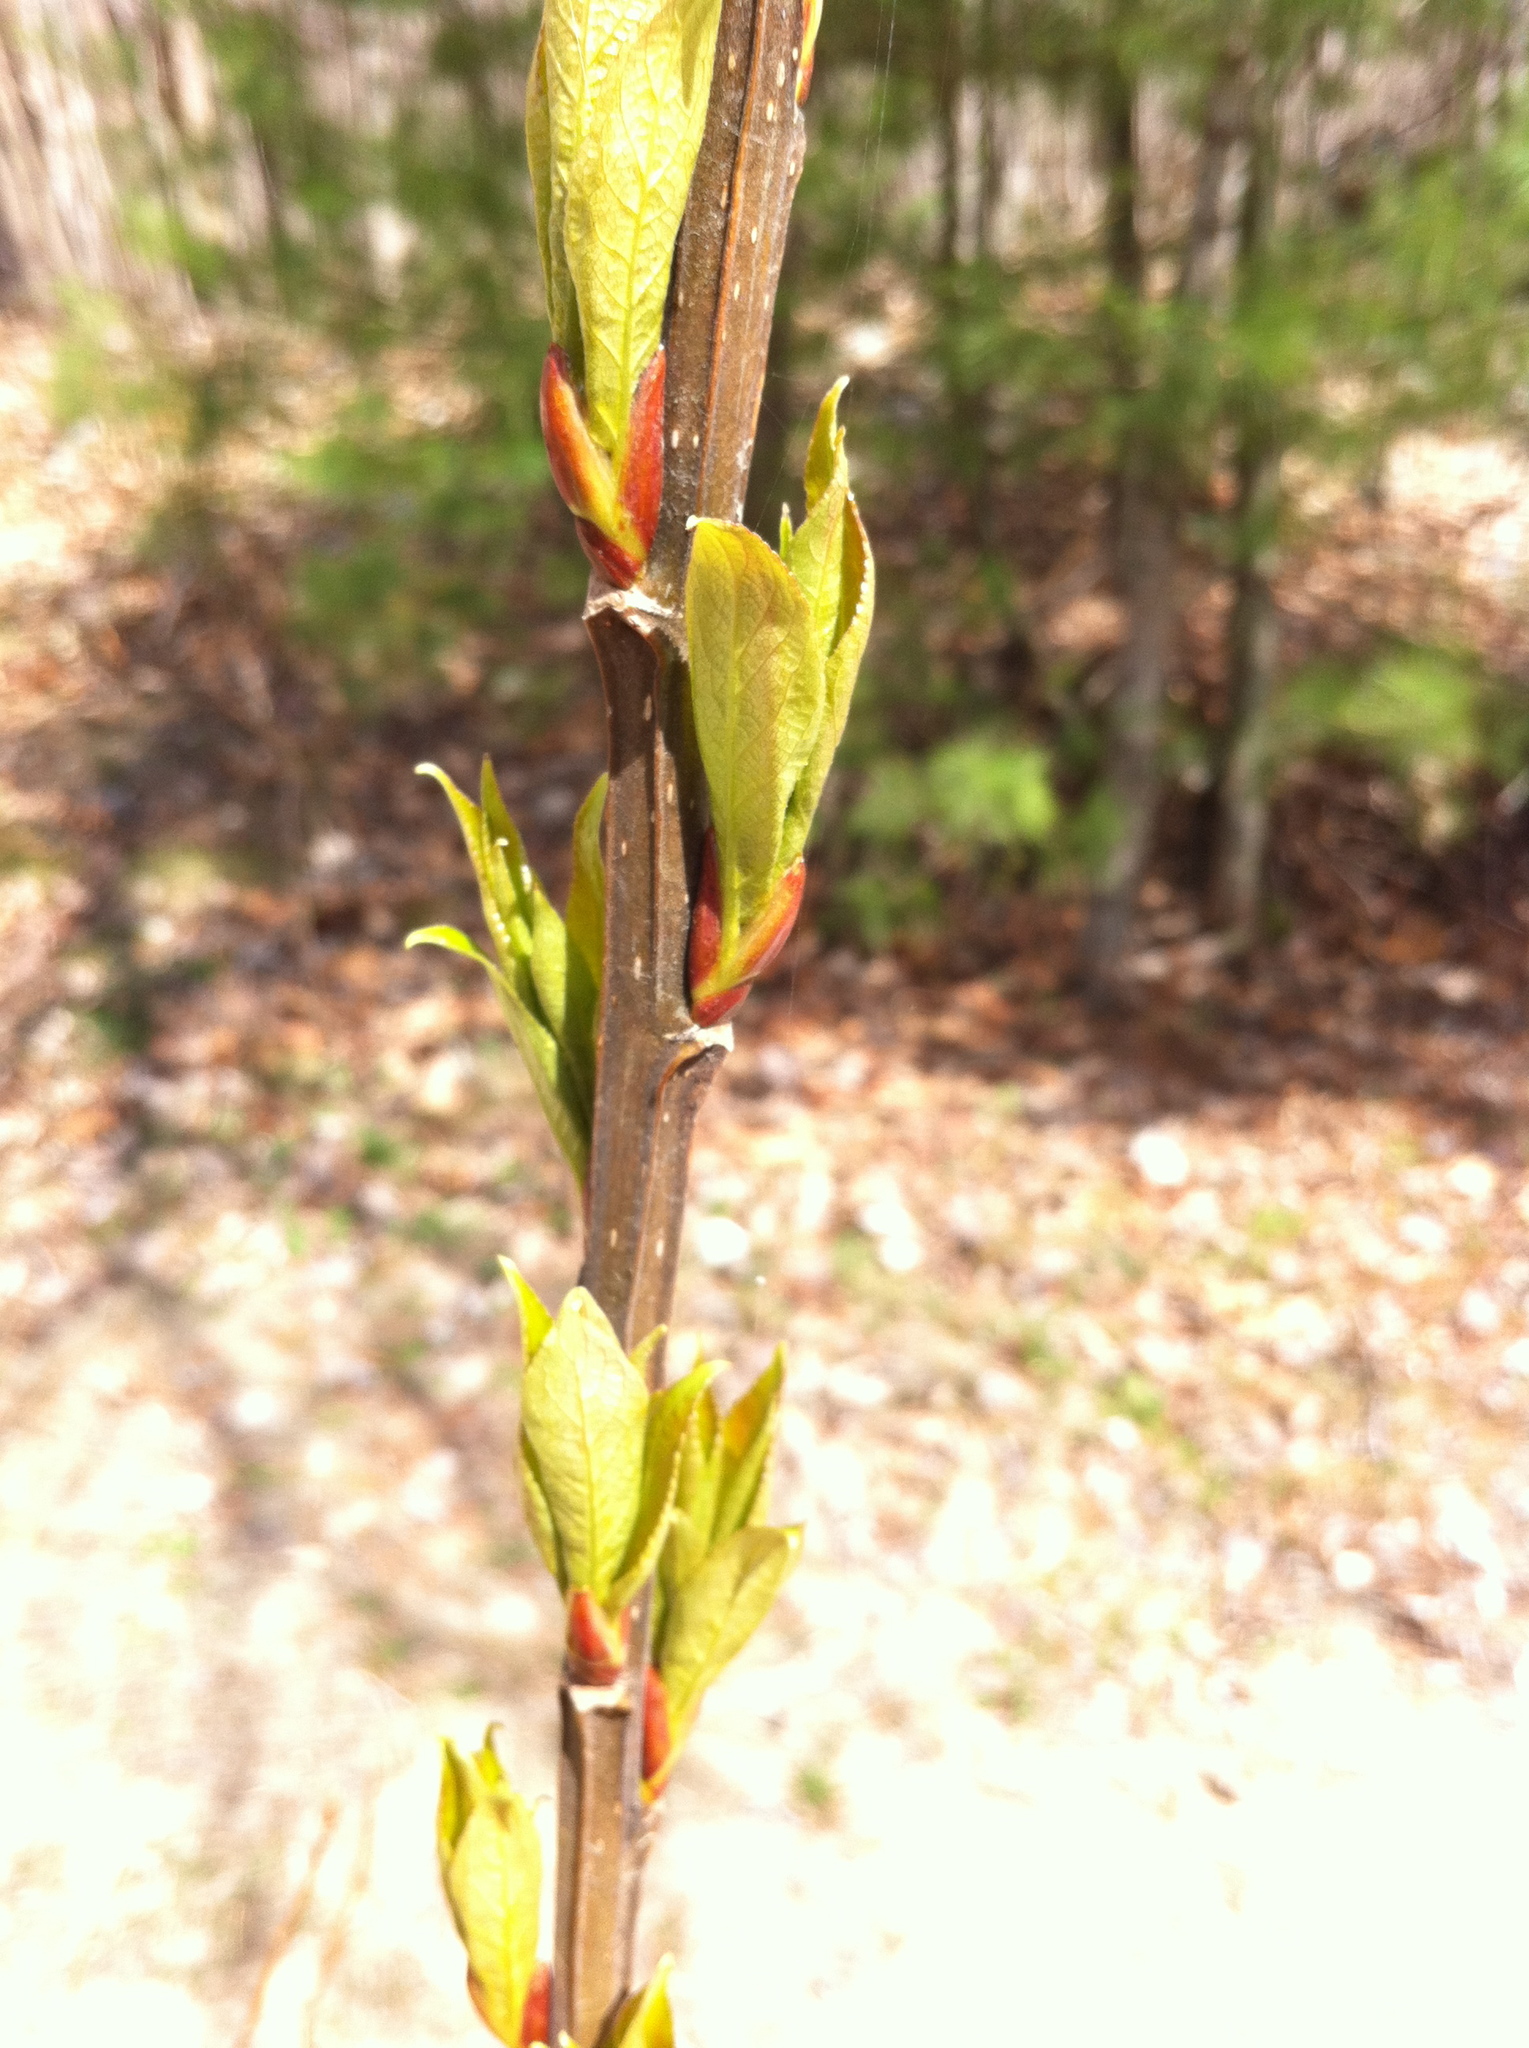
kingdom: Plantae
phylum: Tracheophyta
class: Magnoliopsida
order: Malpighiales
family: Salicaceae
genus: Populus
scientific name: Populus balsamifera
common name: Balsam poplar
